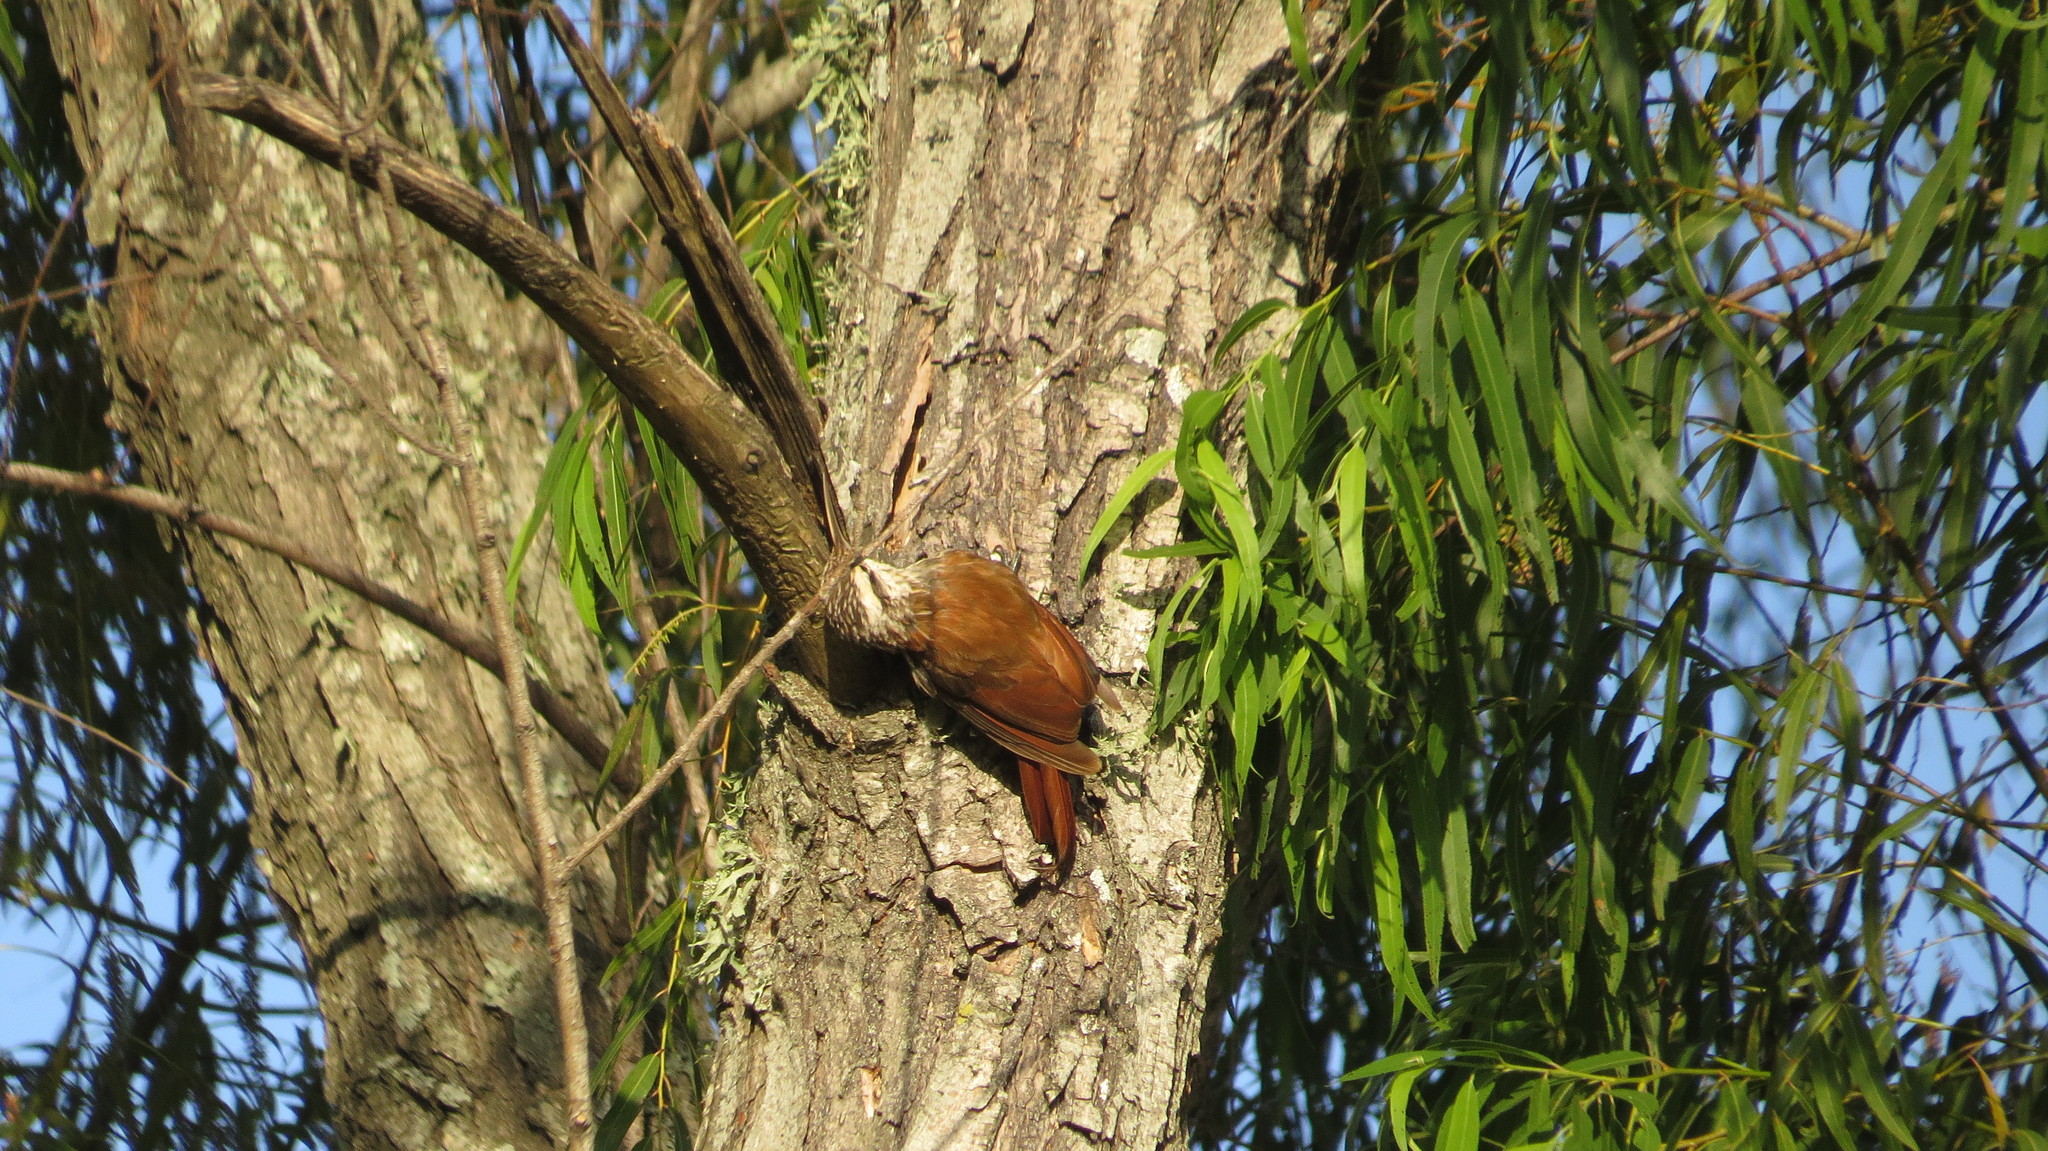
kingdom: Animalia
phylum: Chordata
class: Aves
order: Passeriformes
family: Furnariidae
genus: Lepidocolaptes
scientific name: Lepidocolaptes angustirostris
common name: Narrow-billed woodcreeper
